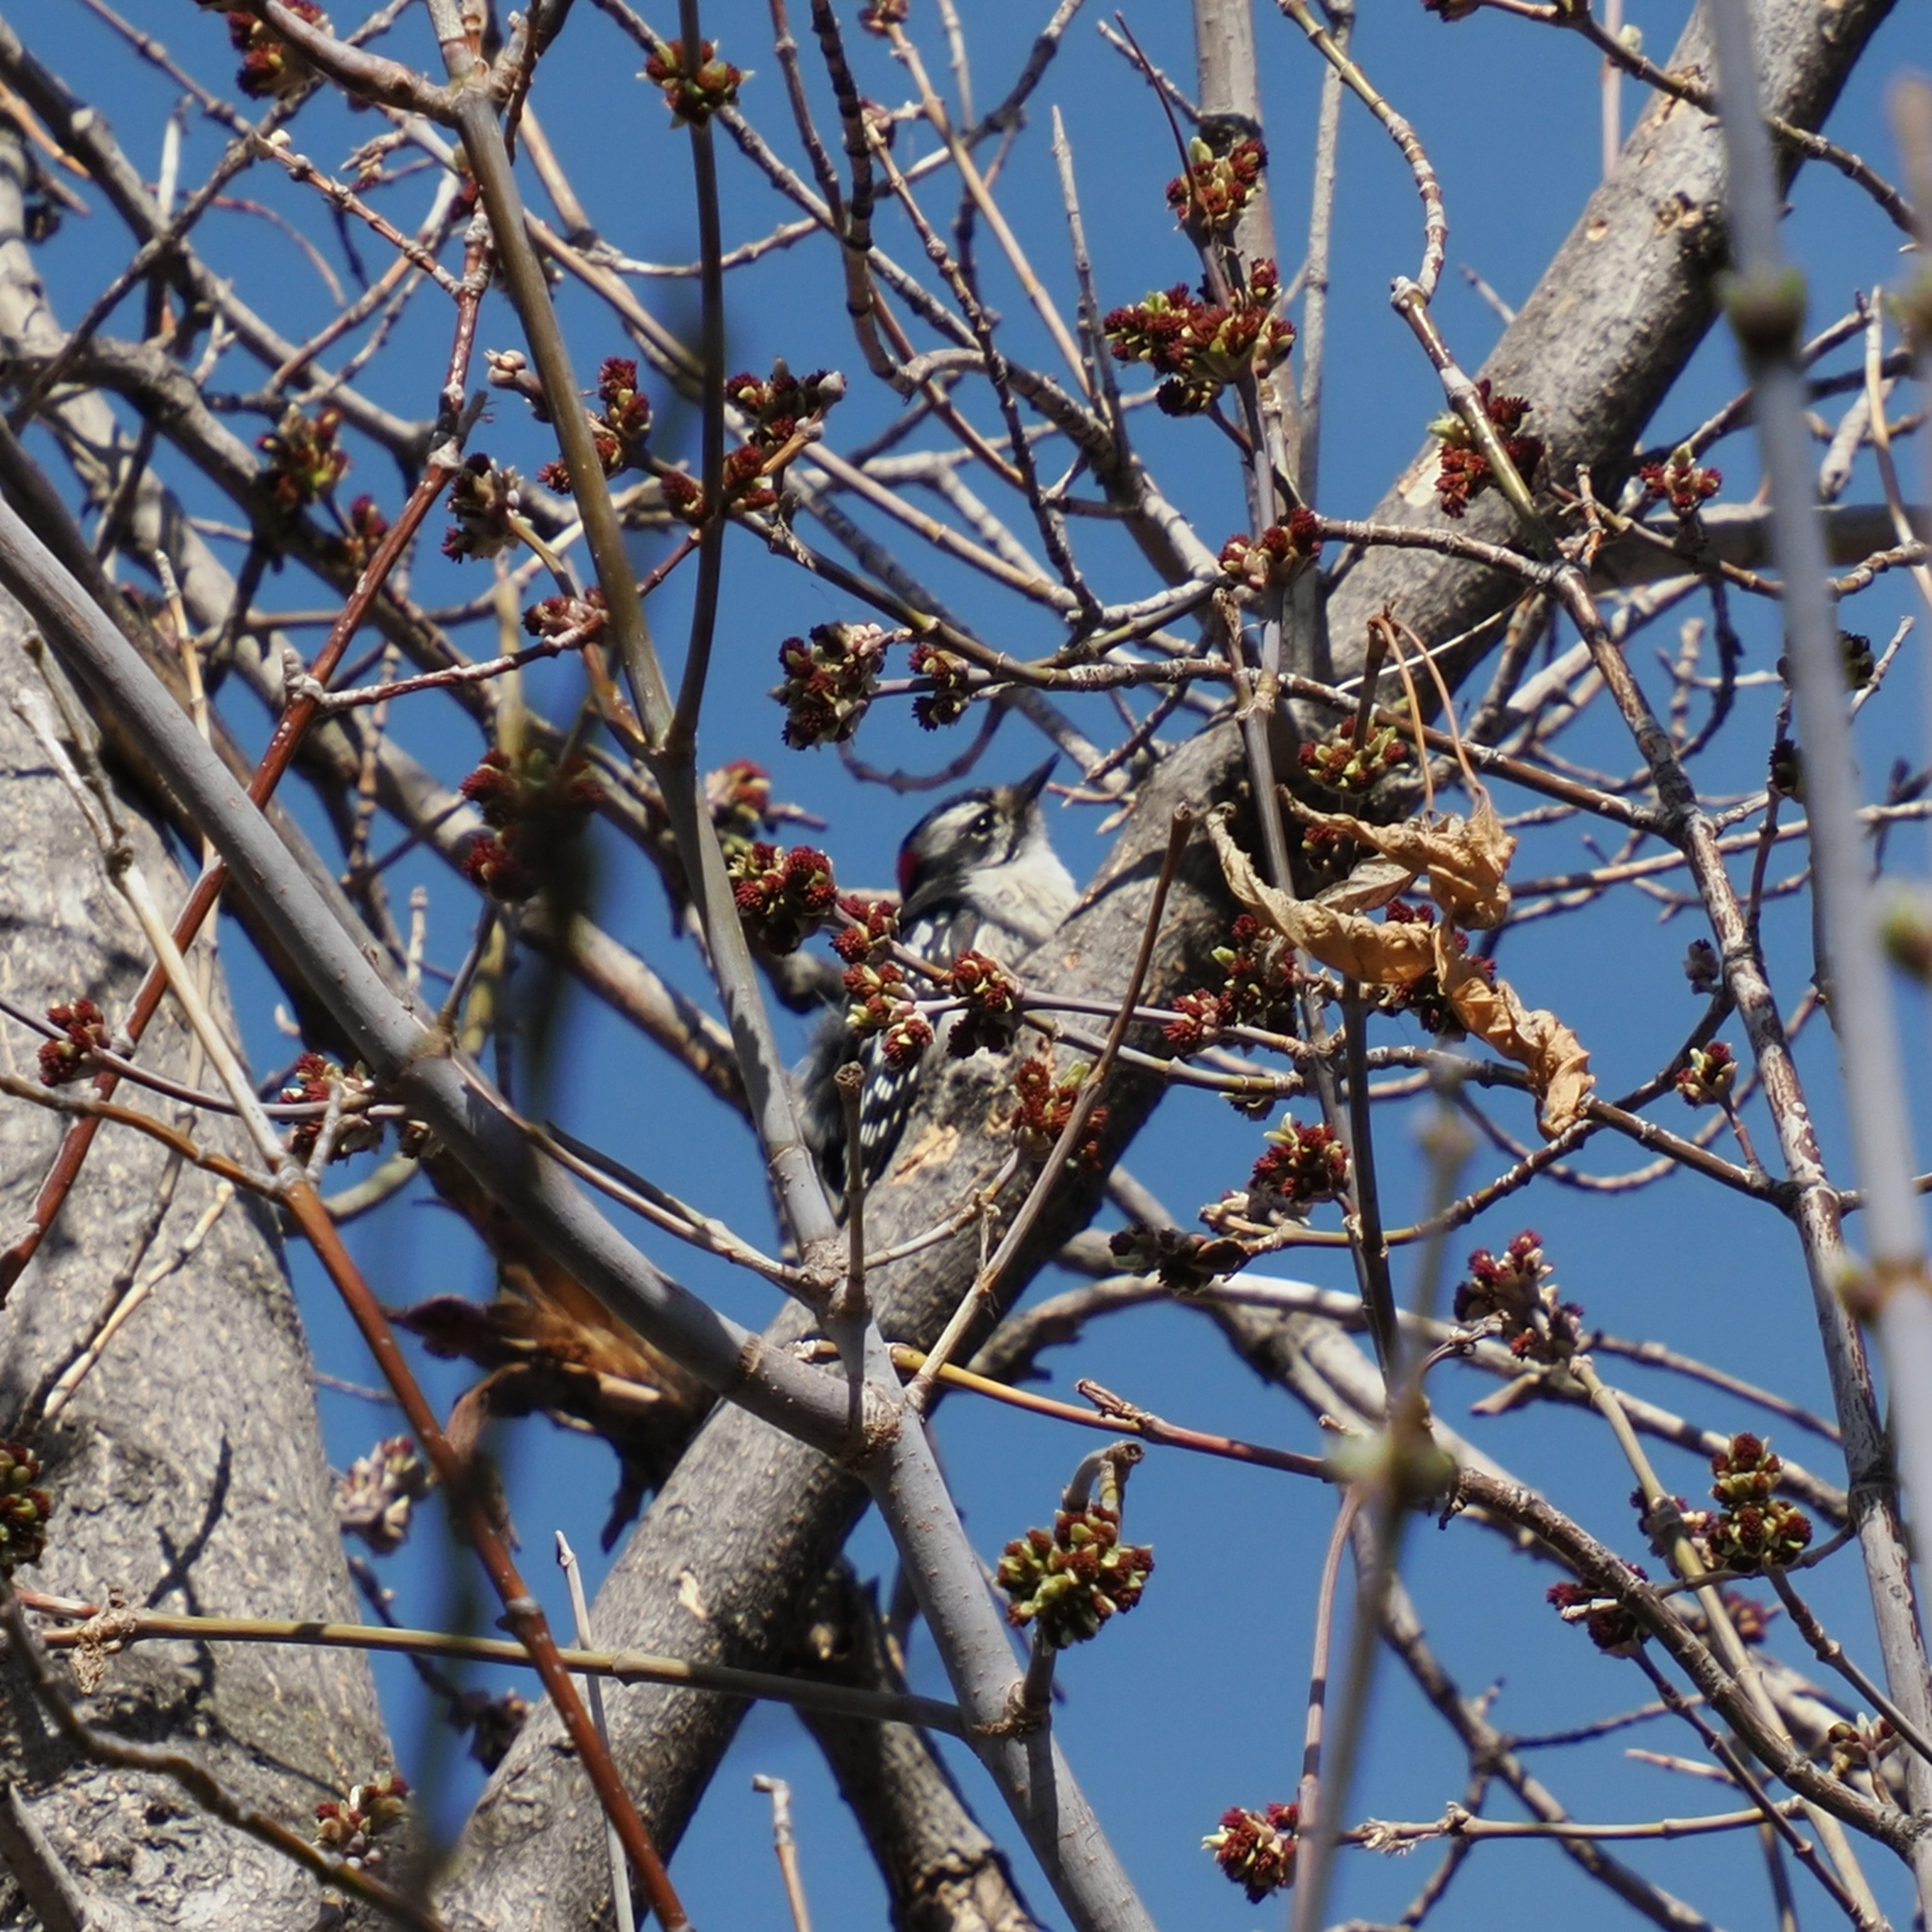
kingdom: Animalia
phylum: Chordata
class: Aves
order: Piciformes
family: Picidae
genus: Dryobates
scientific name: Dryobates pubescens
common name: Downy woodpecker
